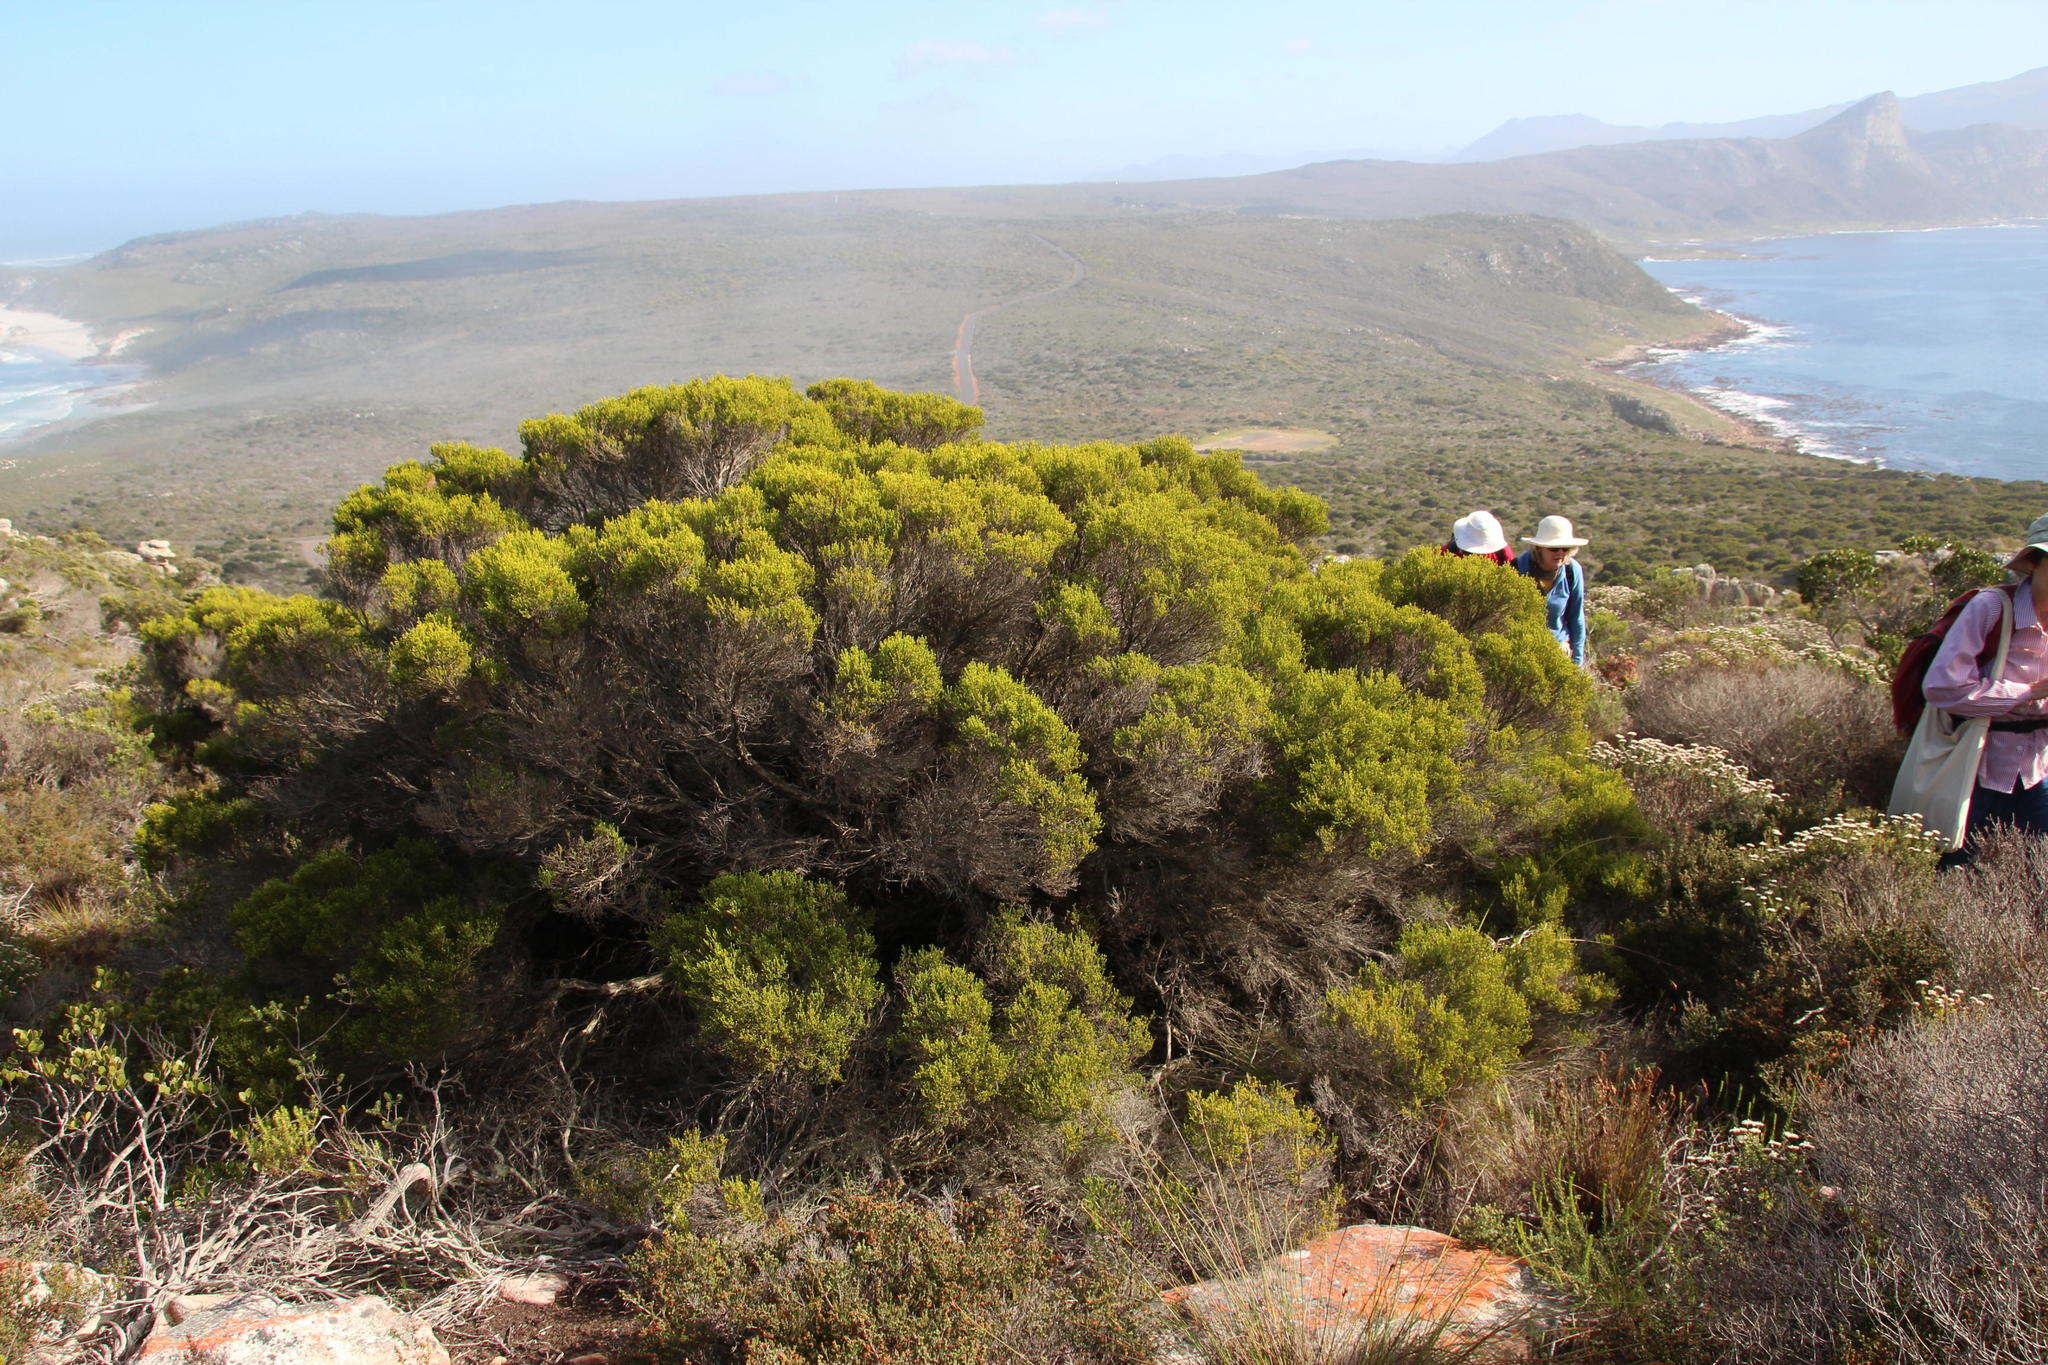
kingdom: Plantae
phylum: Tracheophyta
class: Magnoliopsida
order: Ericales
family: Ericaceae
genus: Erica
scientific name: Erica tristis
